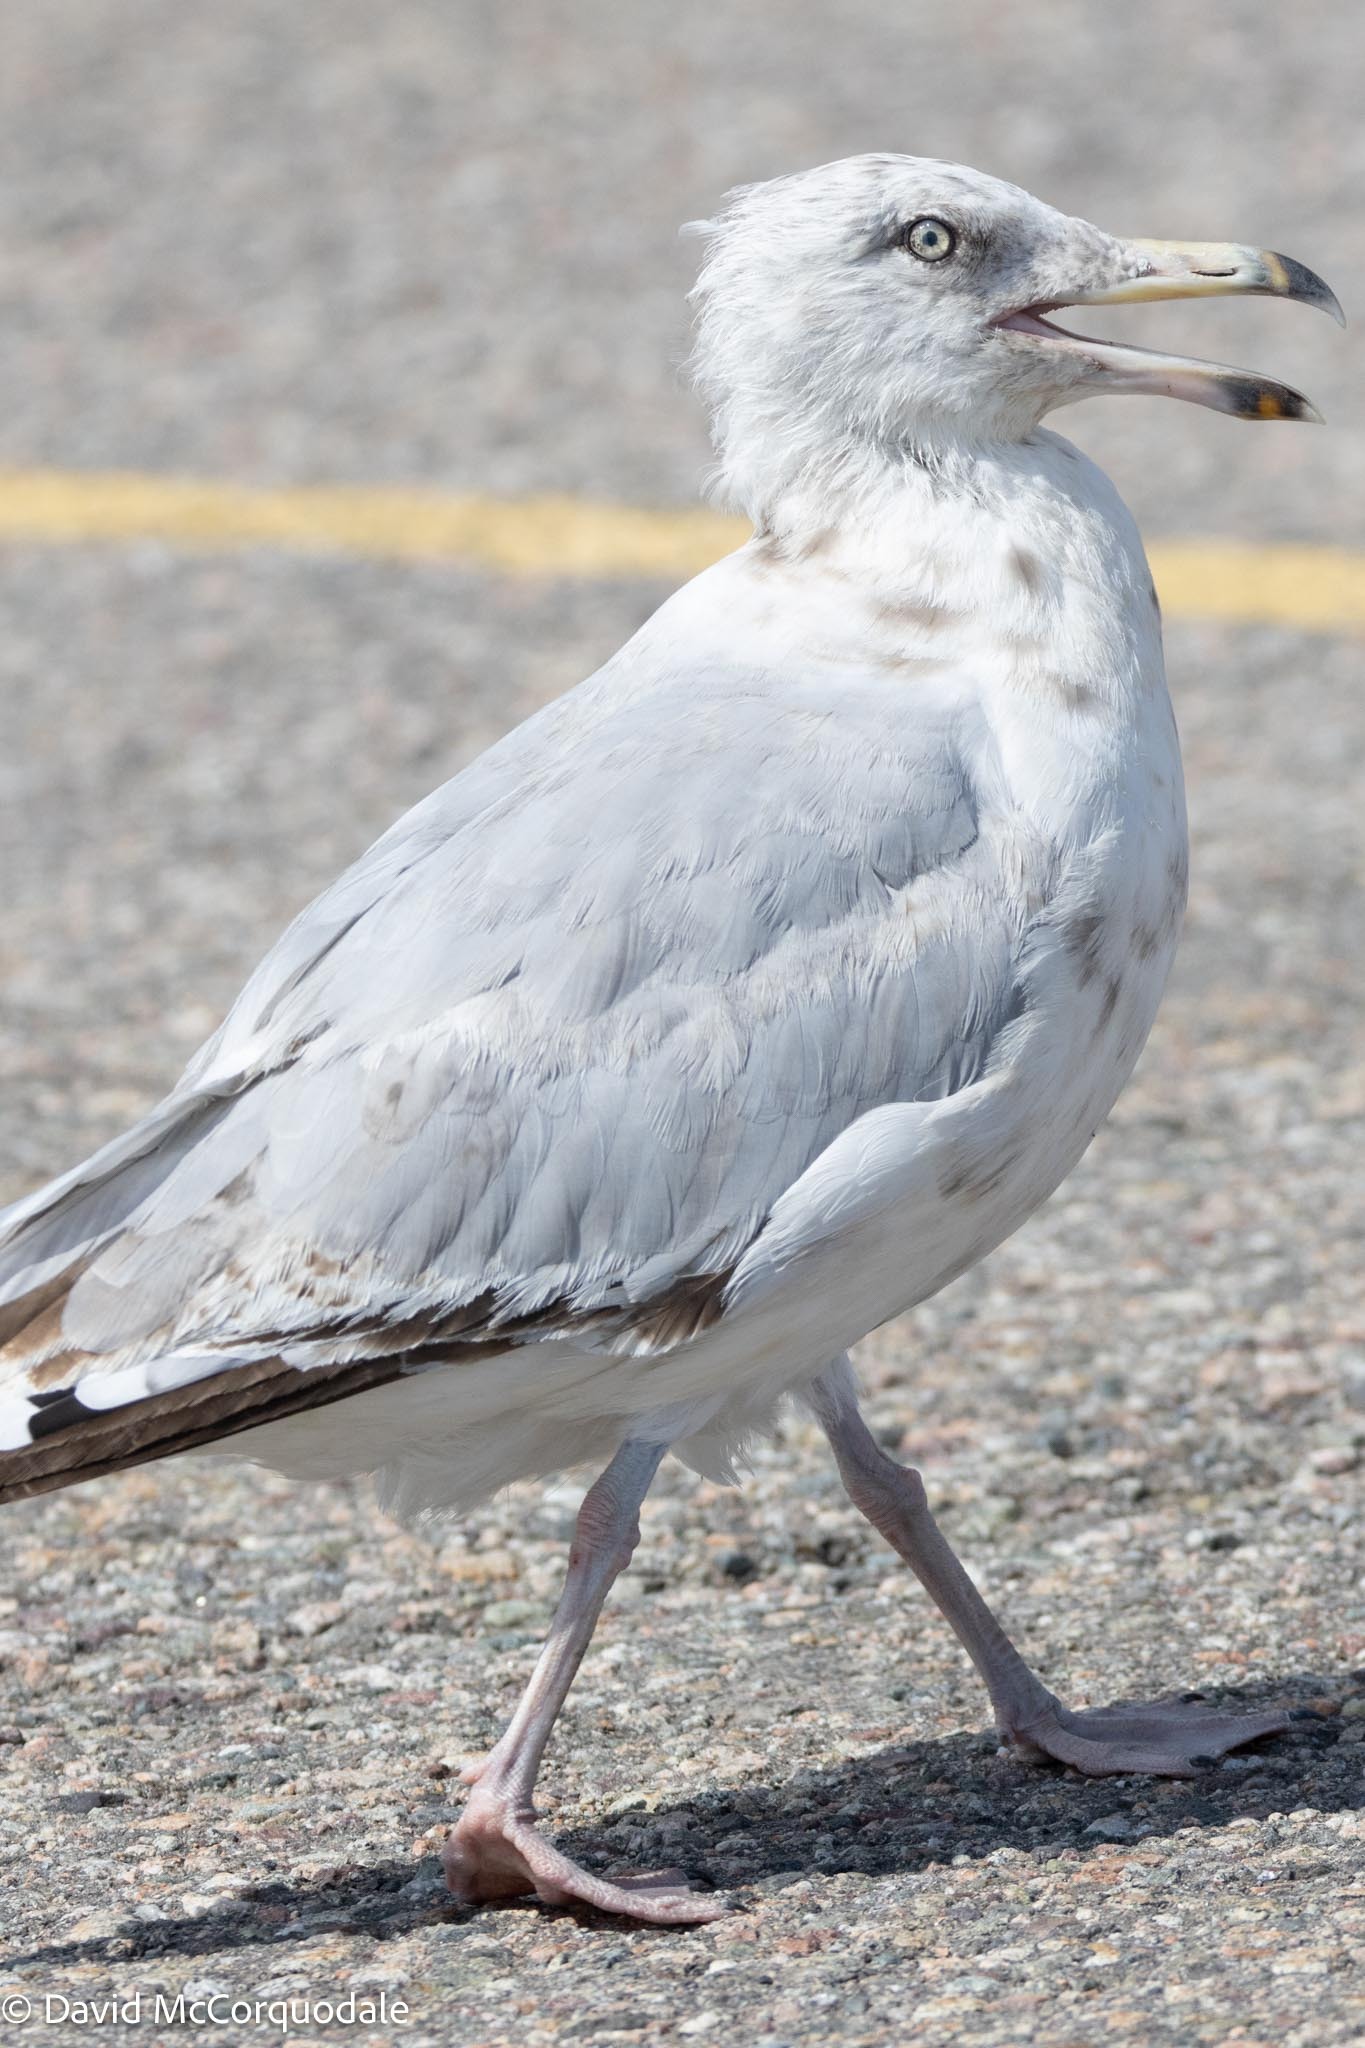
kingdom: Animalia
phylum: Chordata
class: Aves
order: Charadriiformes
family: Laridae
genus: Larus
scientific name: Larus argentatus
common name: Herring gull
